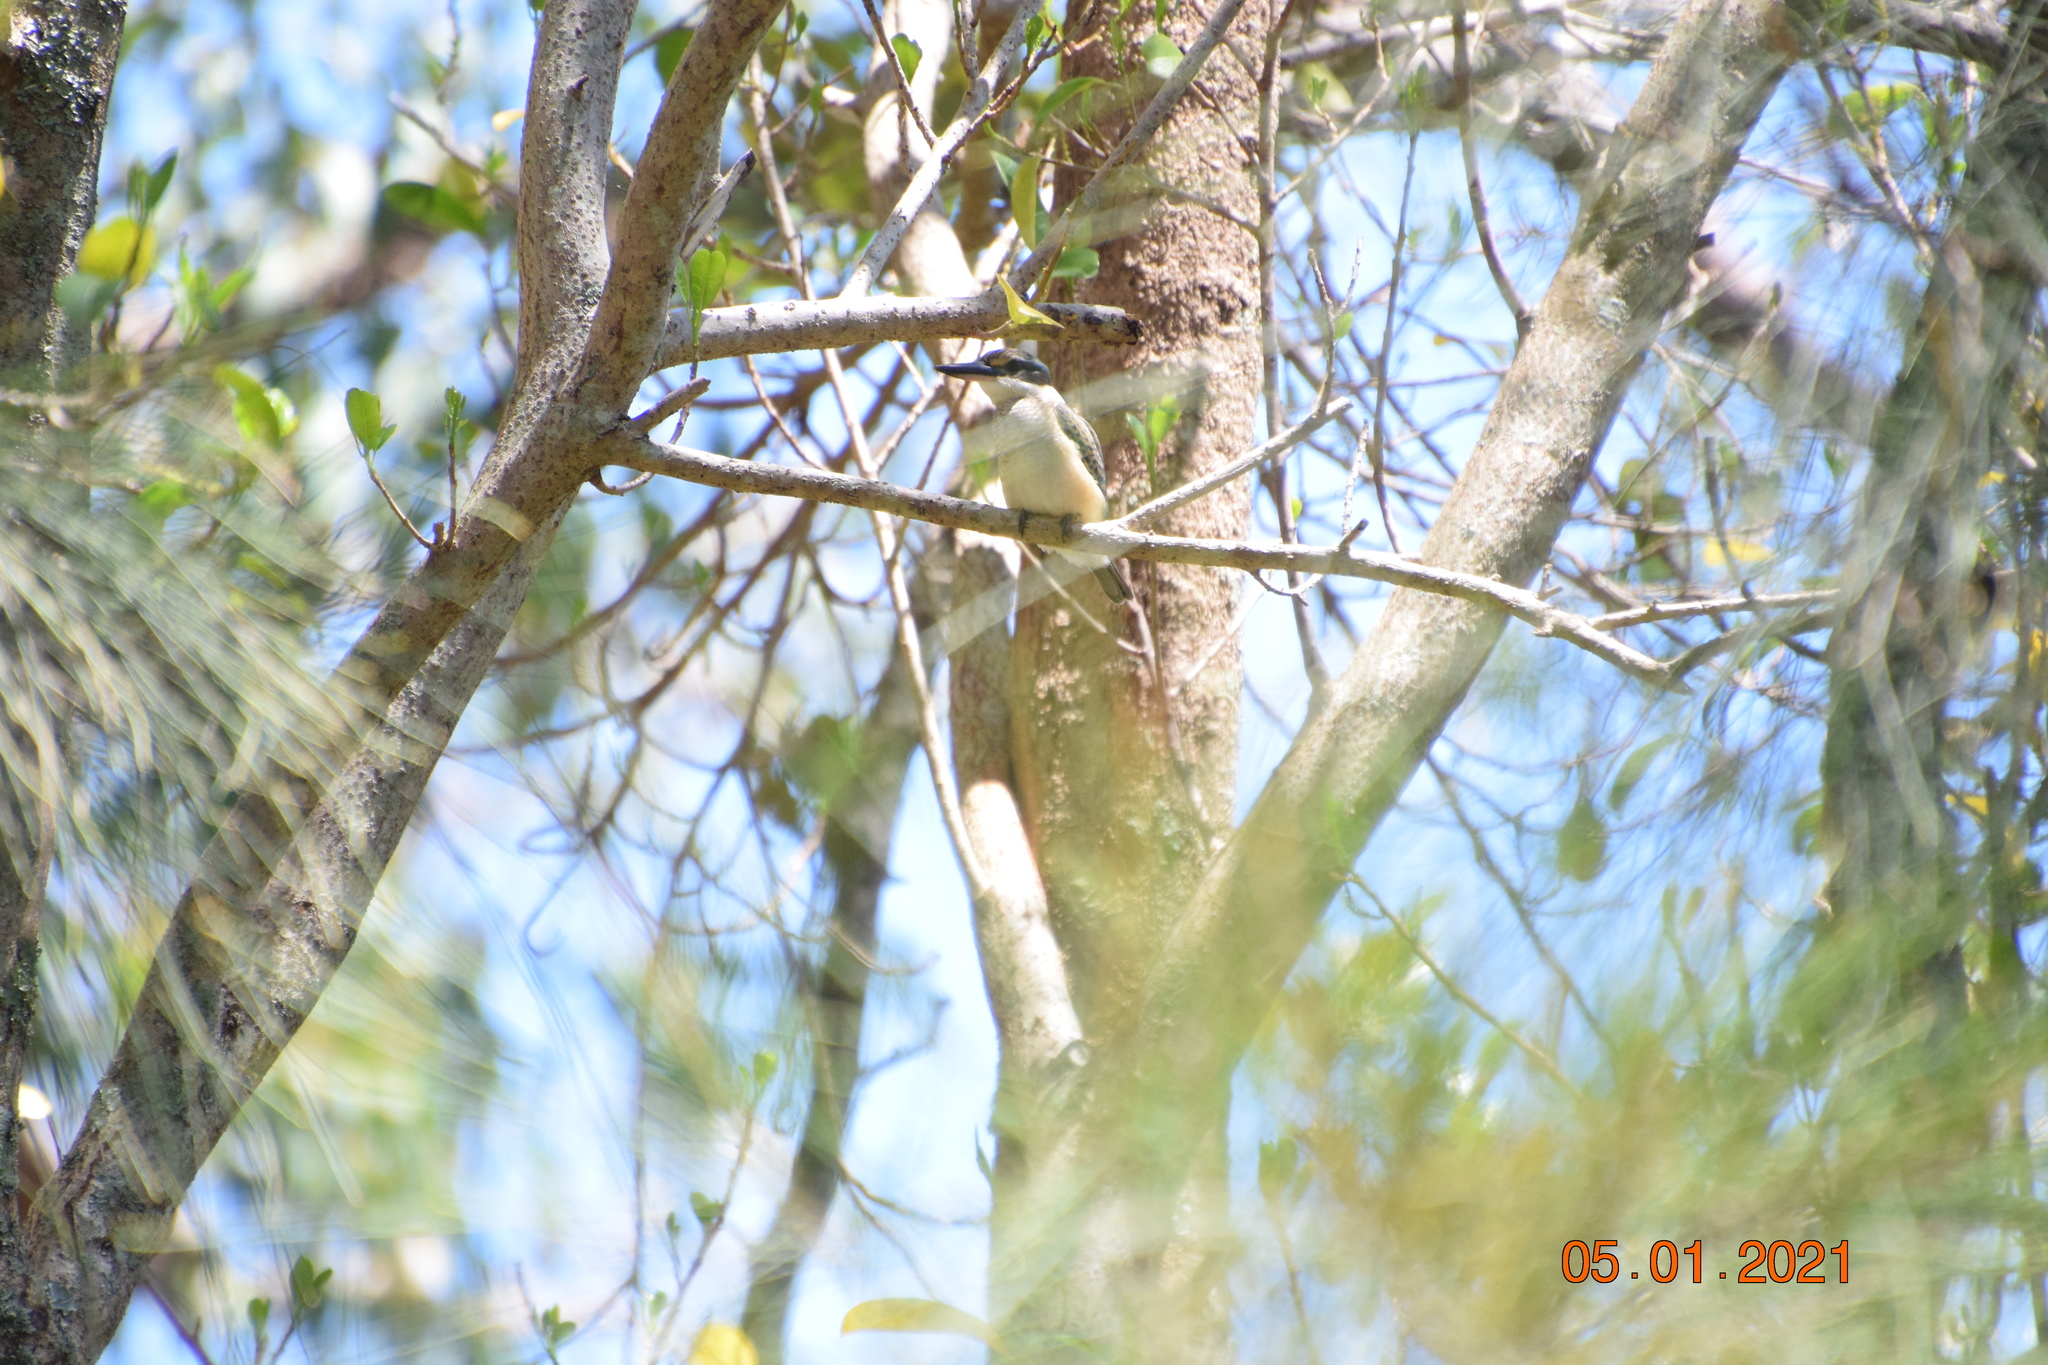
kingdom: Animalia
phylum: Chordata
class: Aves
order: Coraciiformes
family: Alcedinidae
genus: Todiramphus
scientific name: Todiramphus sanctus
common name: Sacred kingfisher
